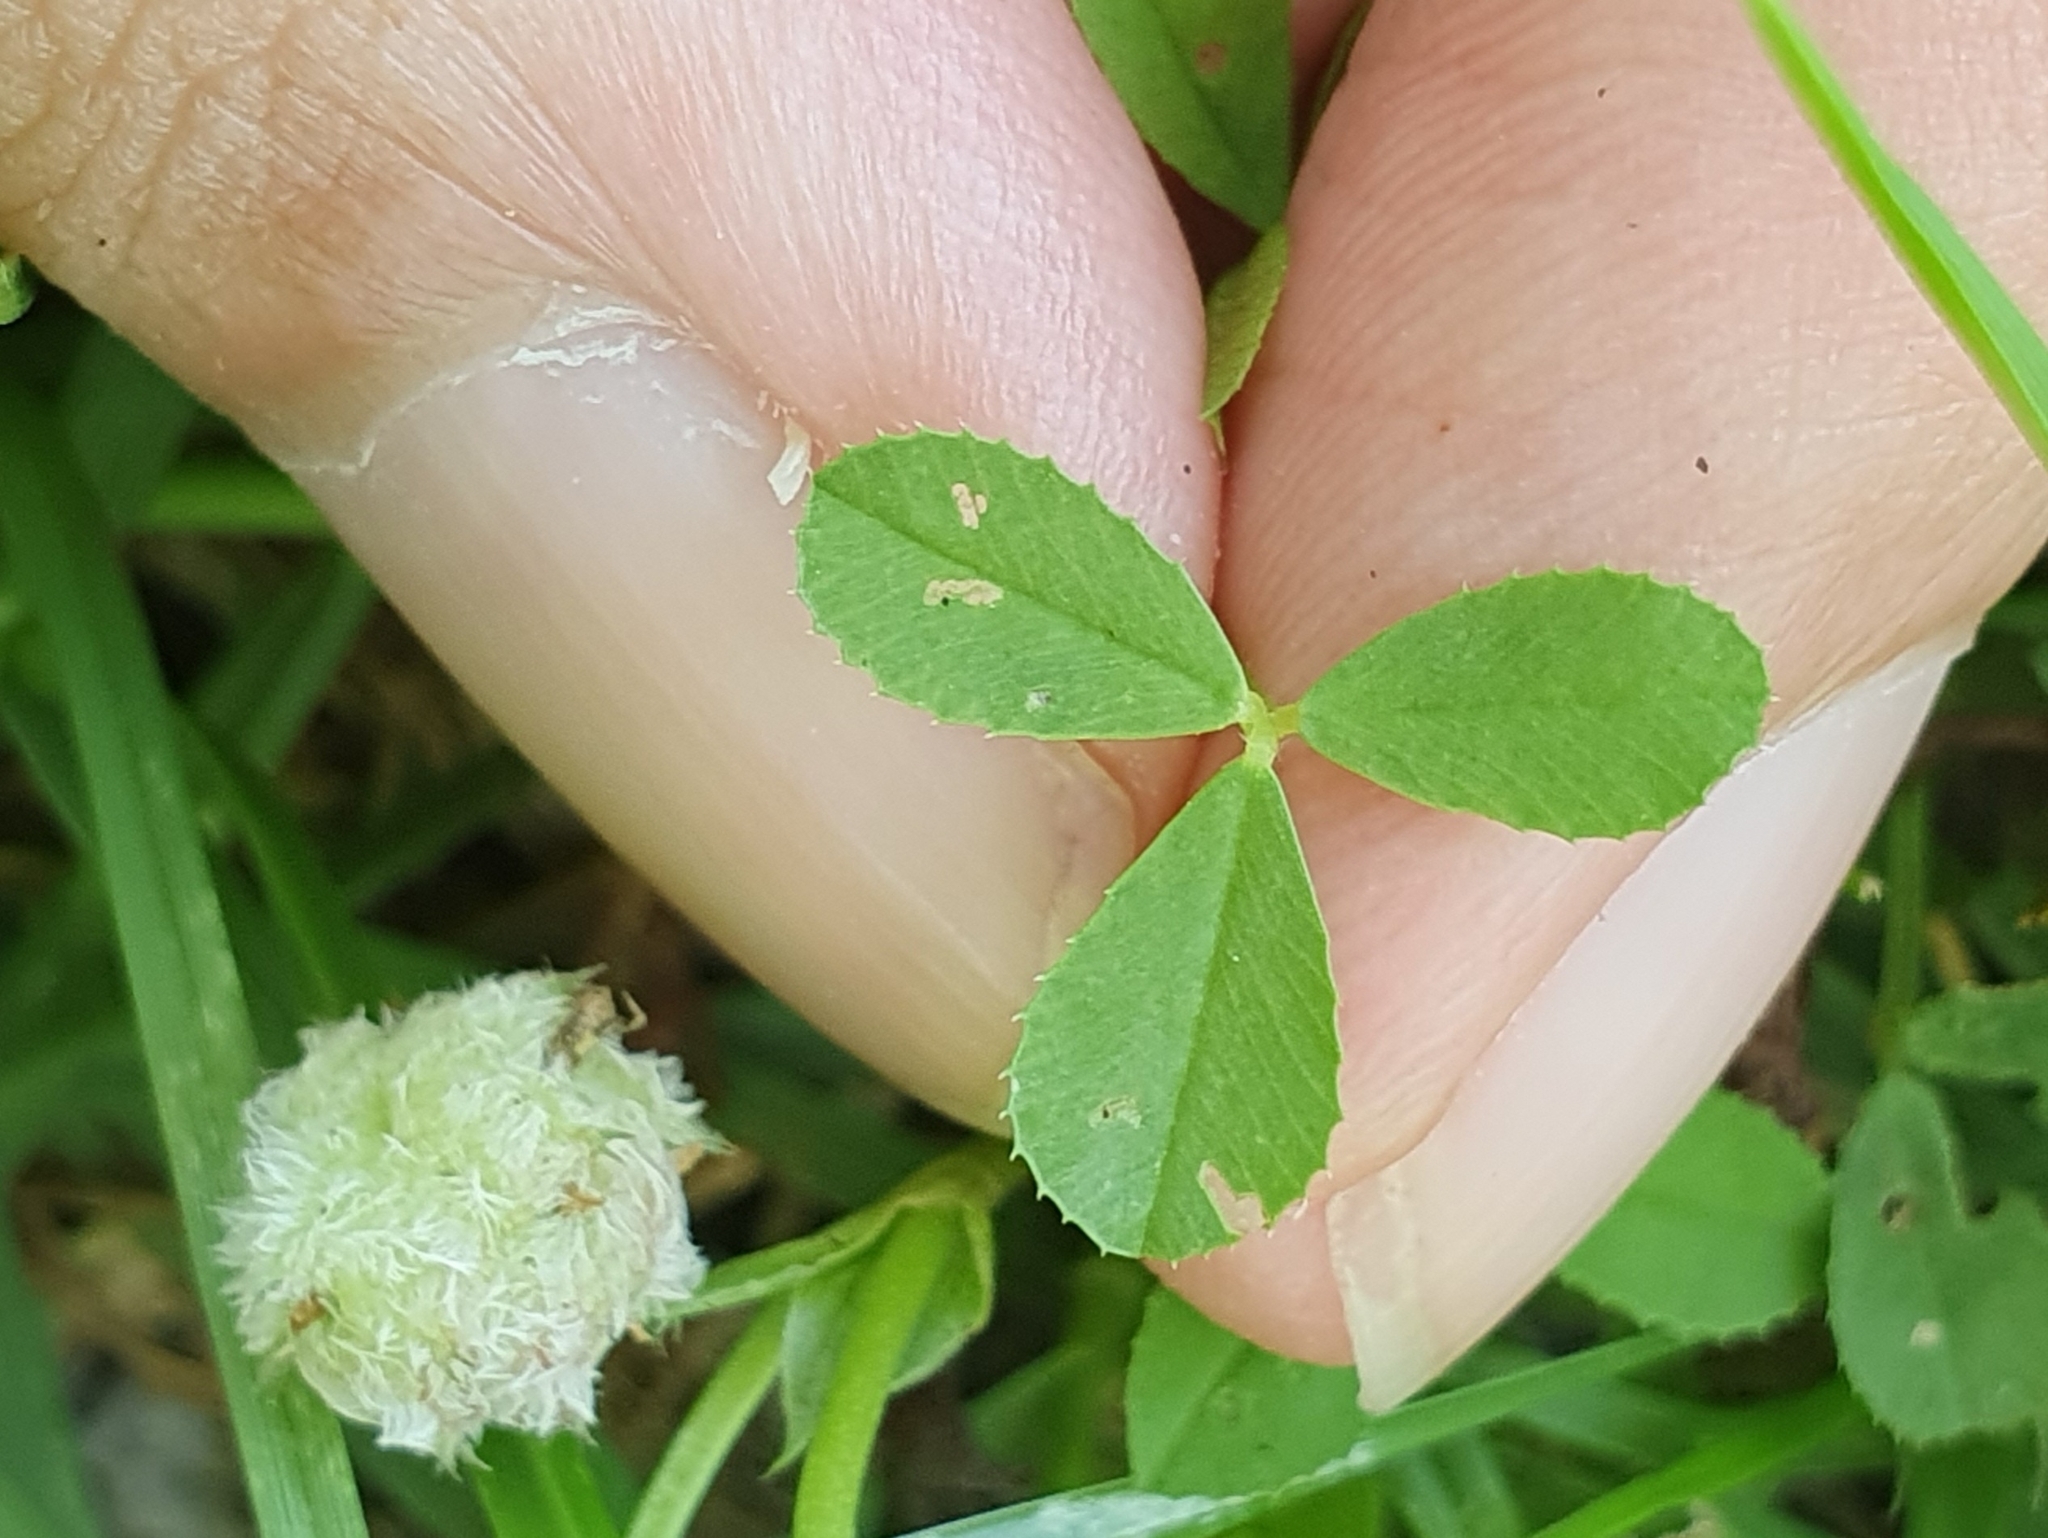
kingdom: Plantae
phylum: Tracheophyta
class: Magnoliopsida
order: Fabales
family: Fabaceae
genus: Trifolium
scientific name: Trifolium tomentosum
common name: Woolly clover
